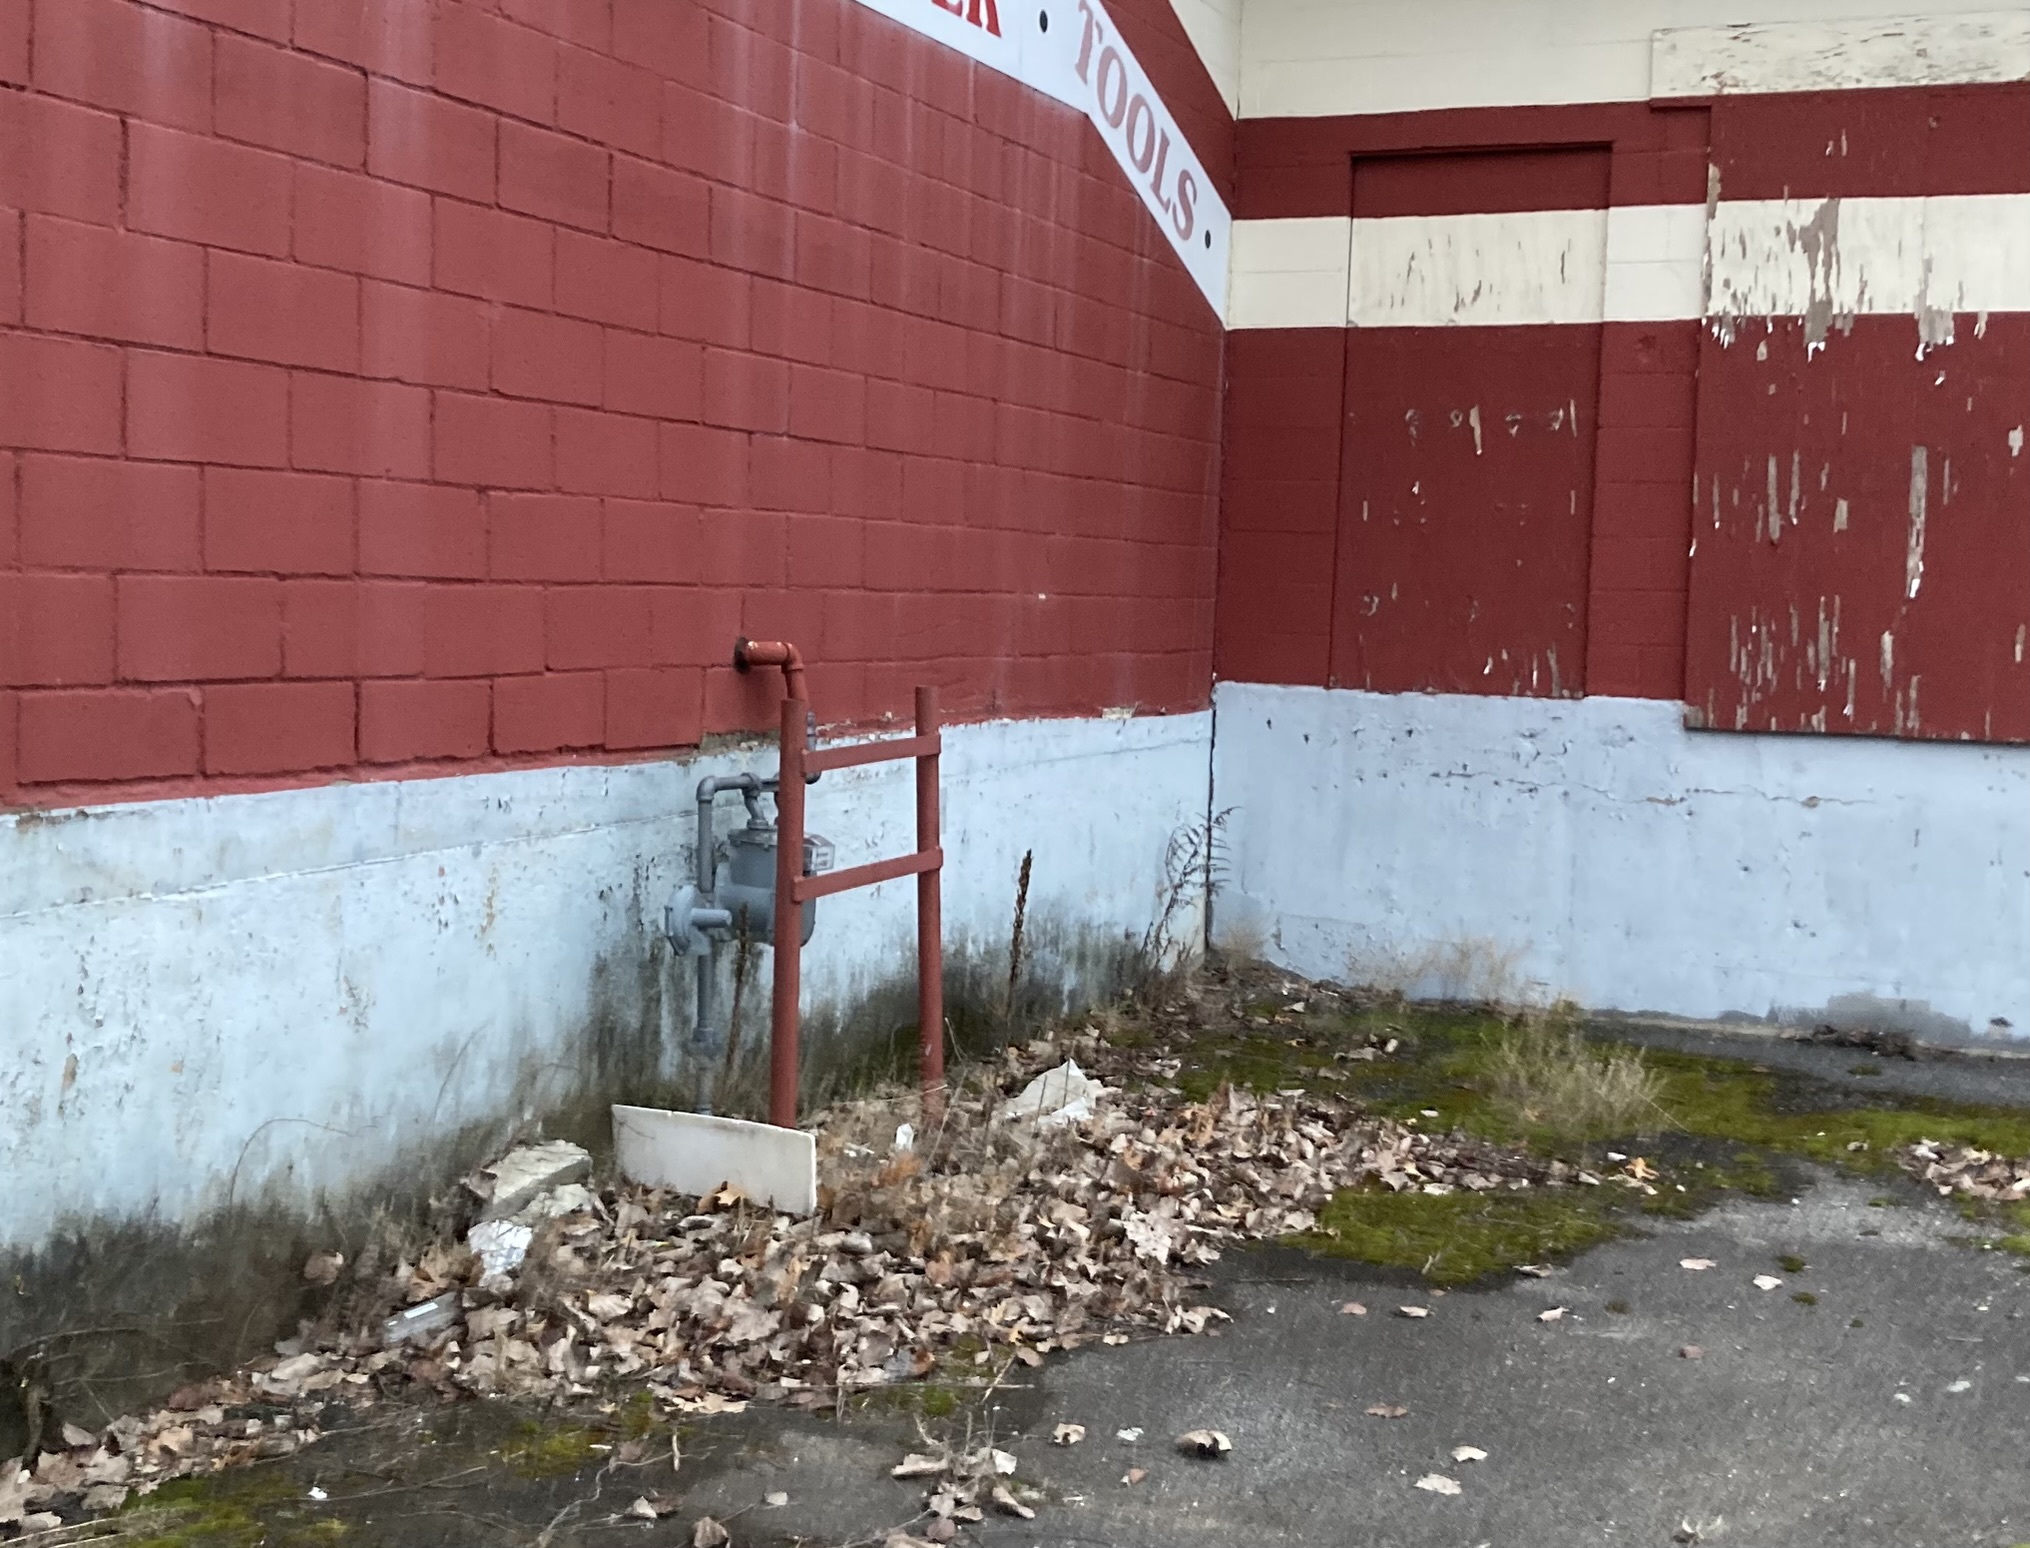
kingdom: Plantae
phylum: Tracheophyta
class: Magnoliopsida
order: Myrtales
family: Onagraceae
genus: Oenothera
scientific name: Oenothera biennis
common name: Common evening-primrose
